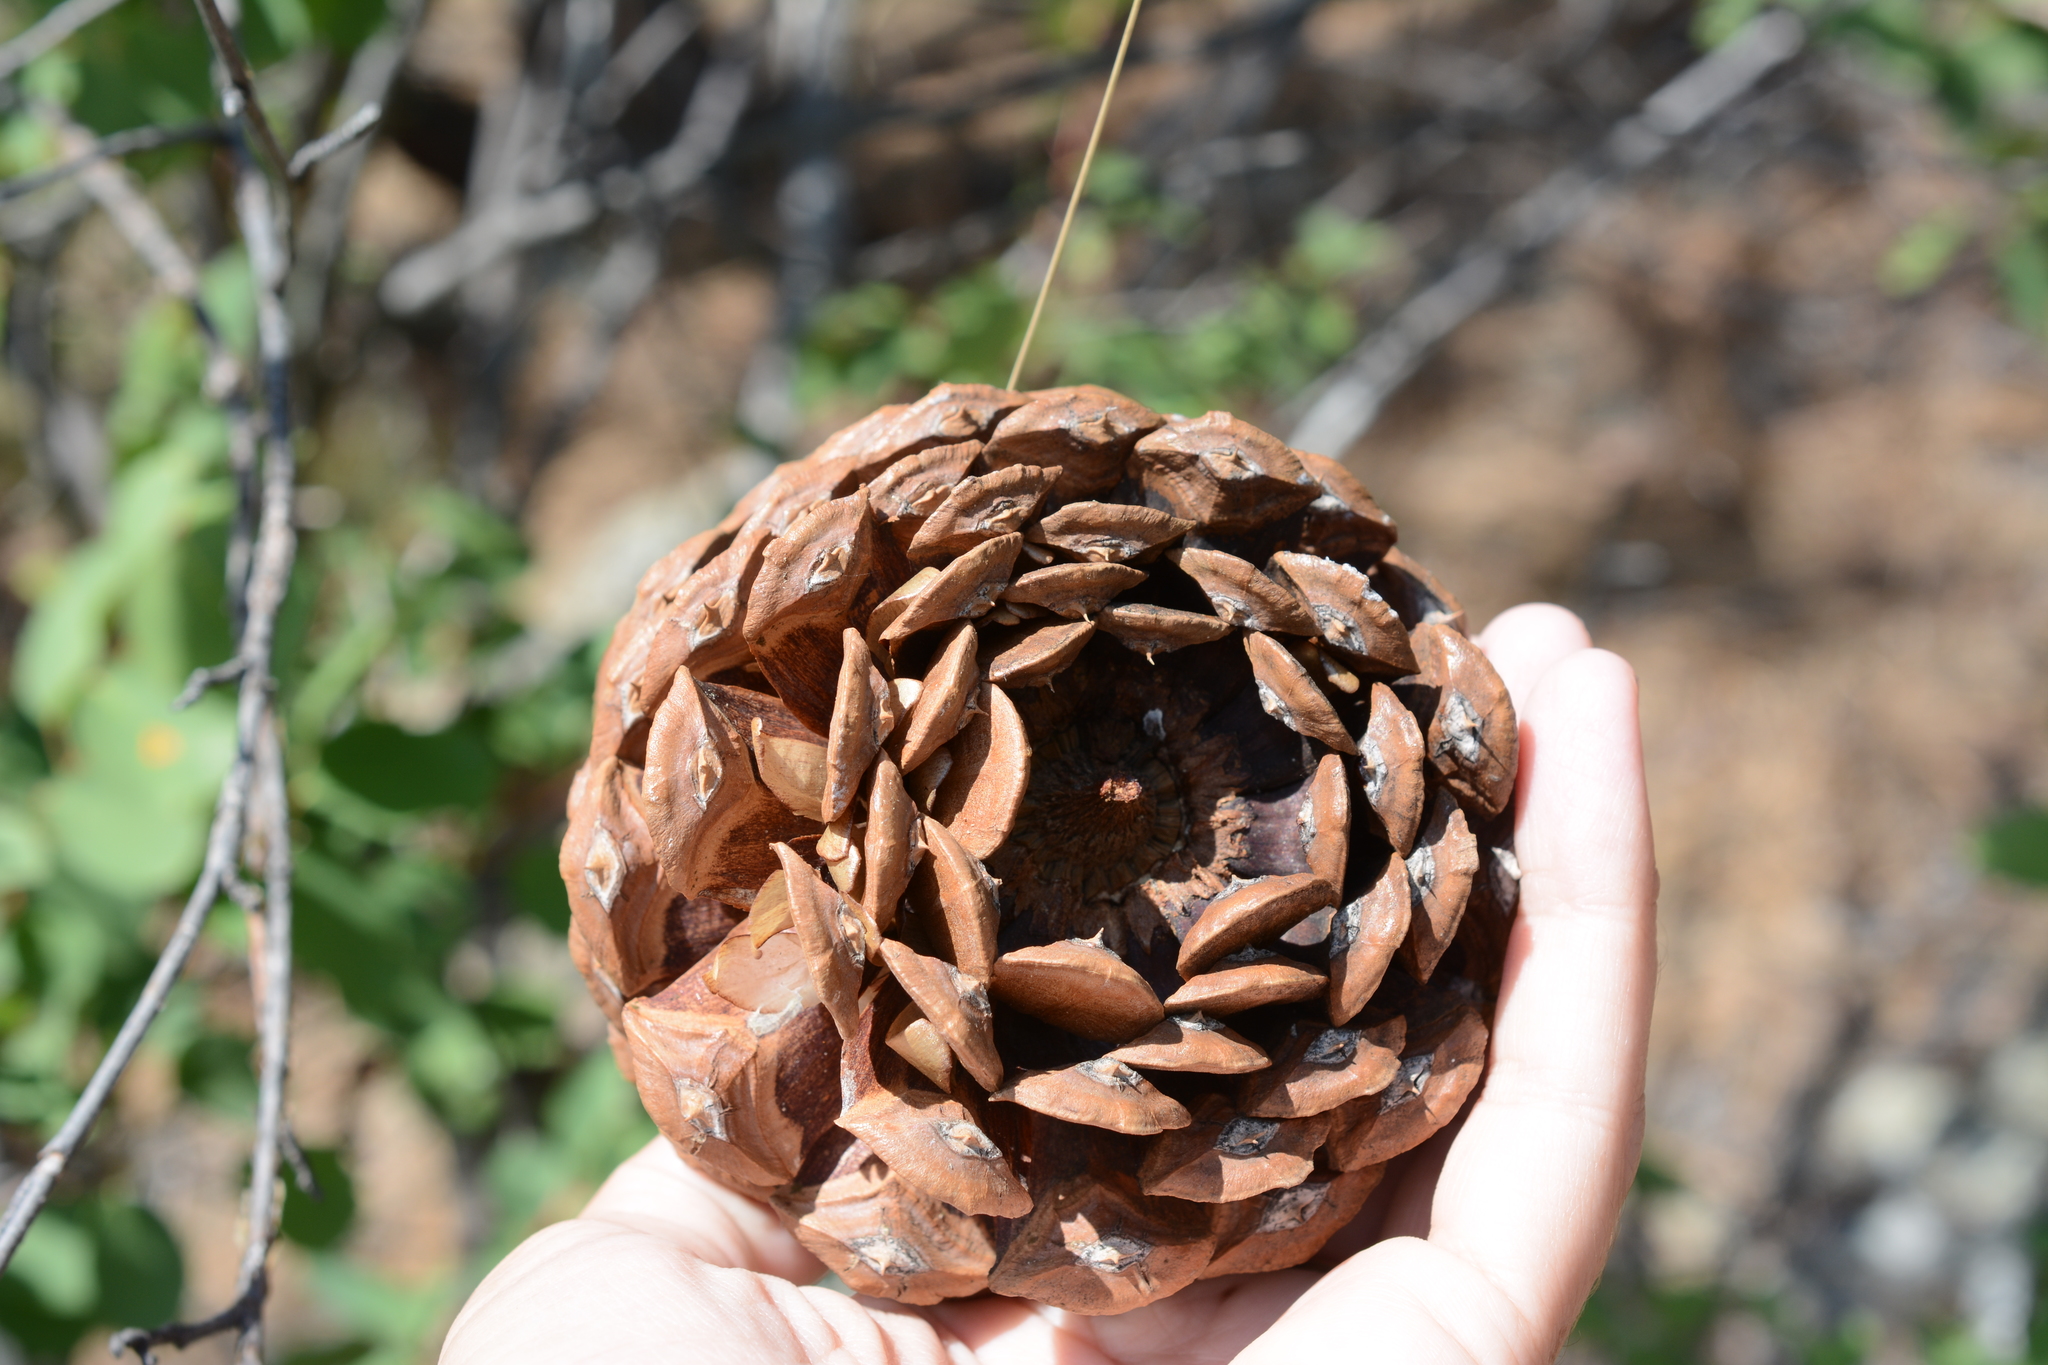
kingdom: Plantae
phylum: Tracheophyta
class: Pinopsida
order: Pinales
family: Pinaceae
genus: Pinus
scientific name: Pinus ponderosa
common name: Western yellow-pine
